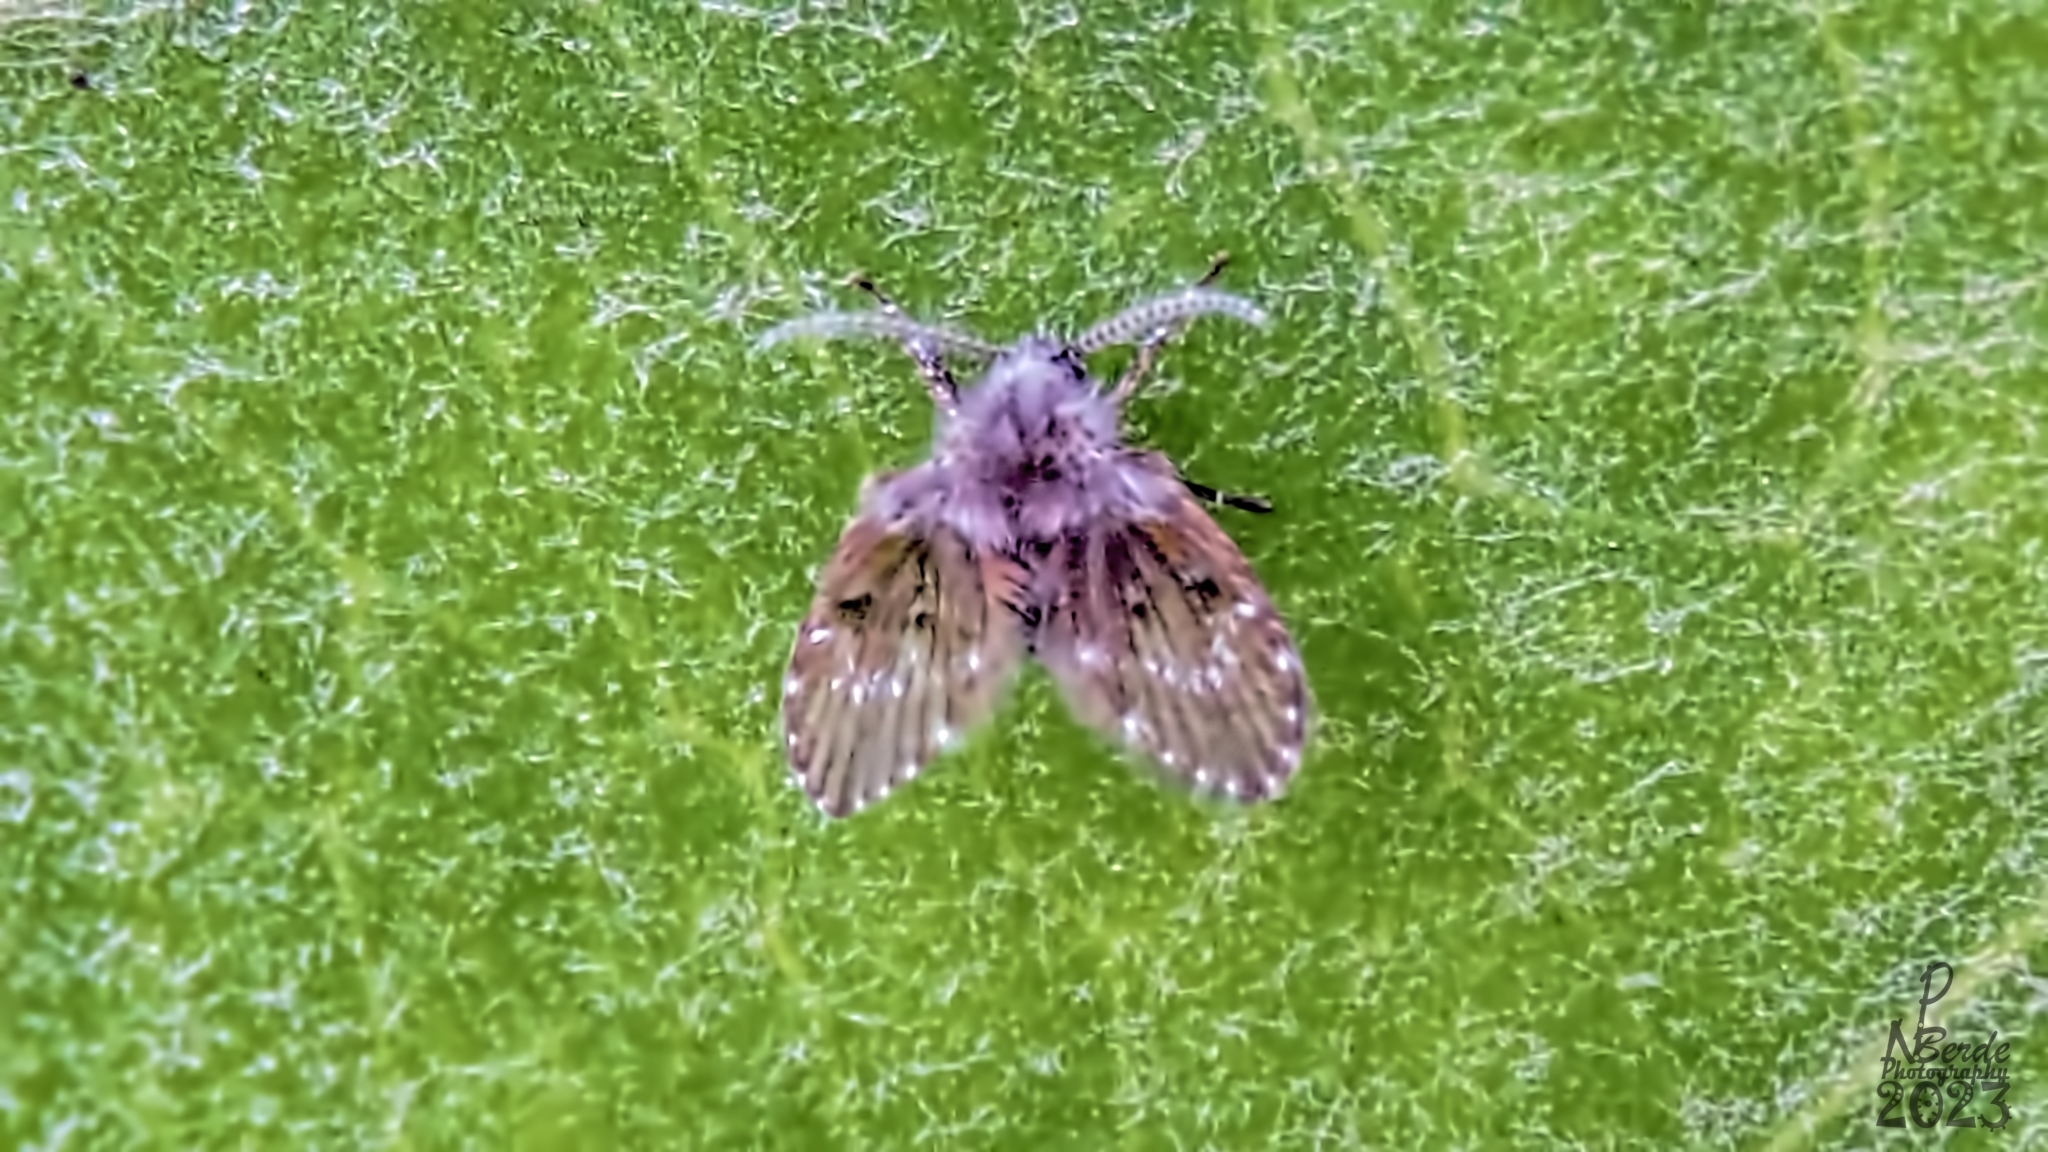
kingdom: Animalia
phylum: Arthropoda
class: Insecta
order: Diptera
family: Psychodidae
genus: Clogmia
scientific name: Clogmia albipunctatus
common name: White-spotted moth fly
